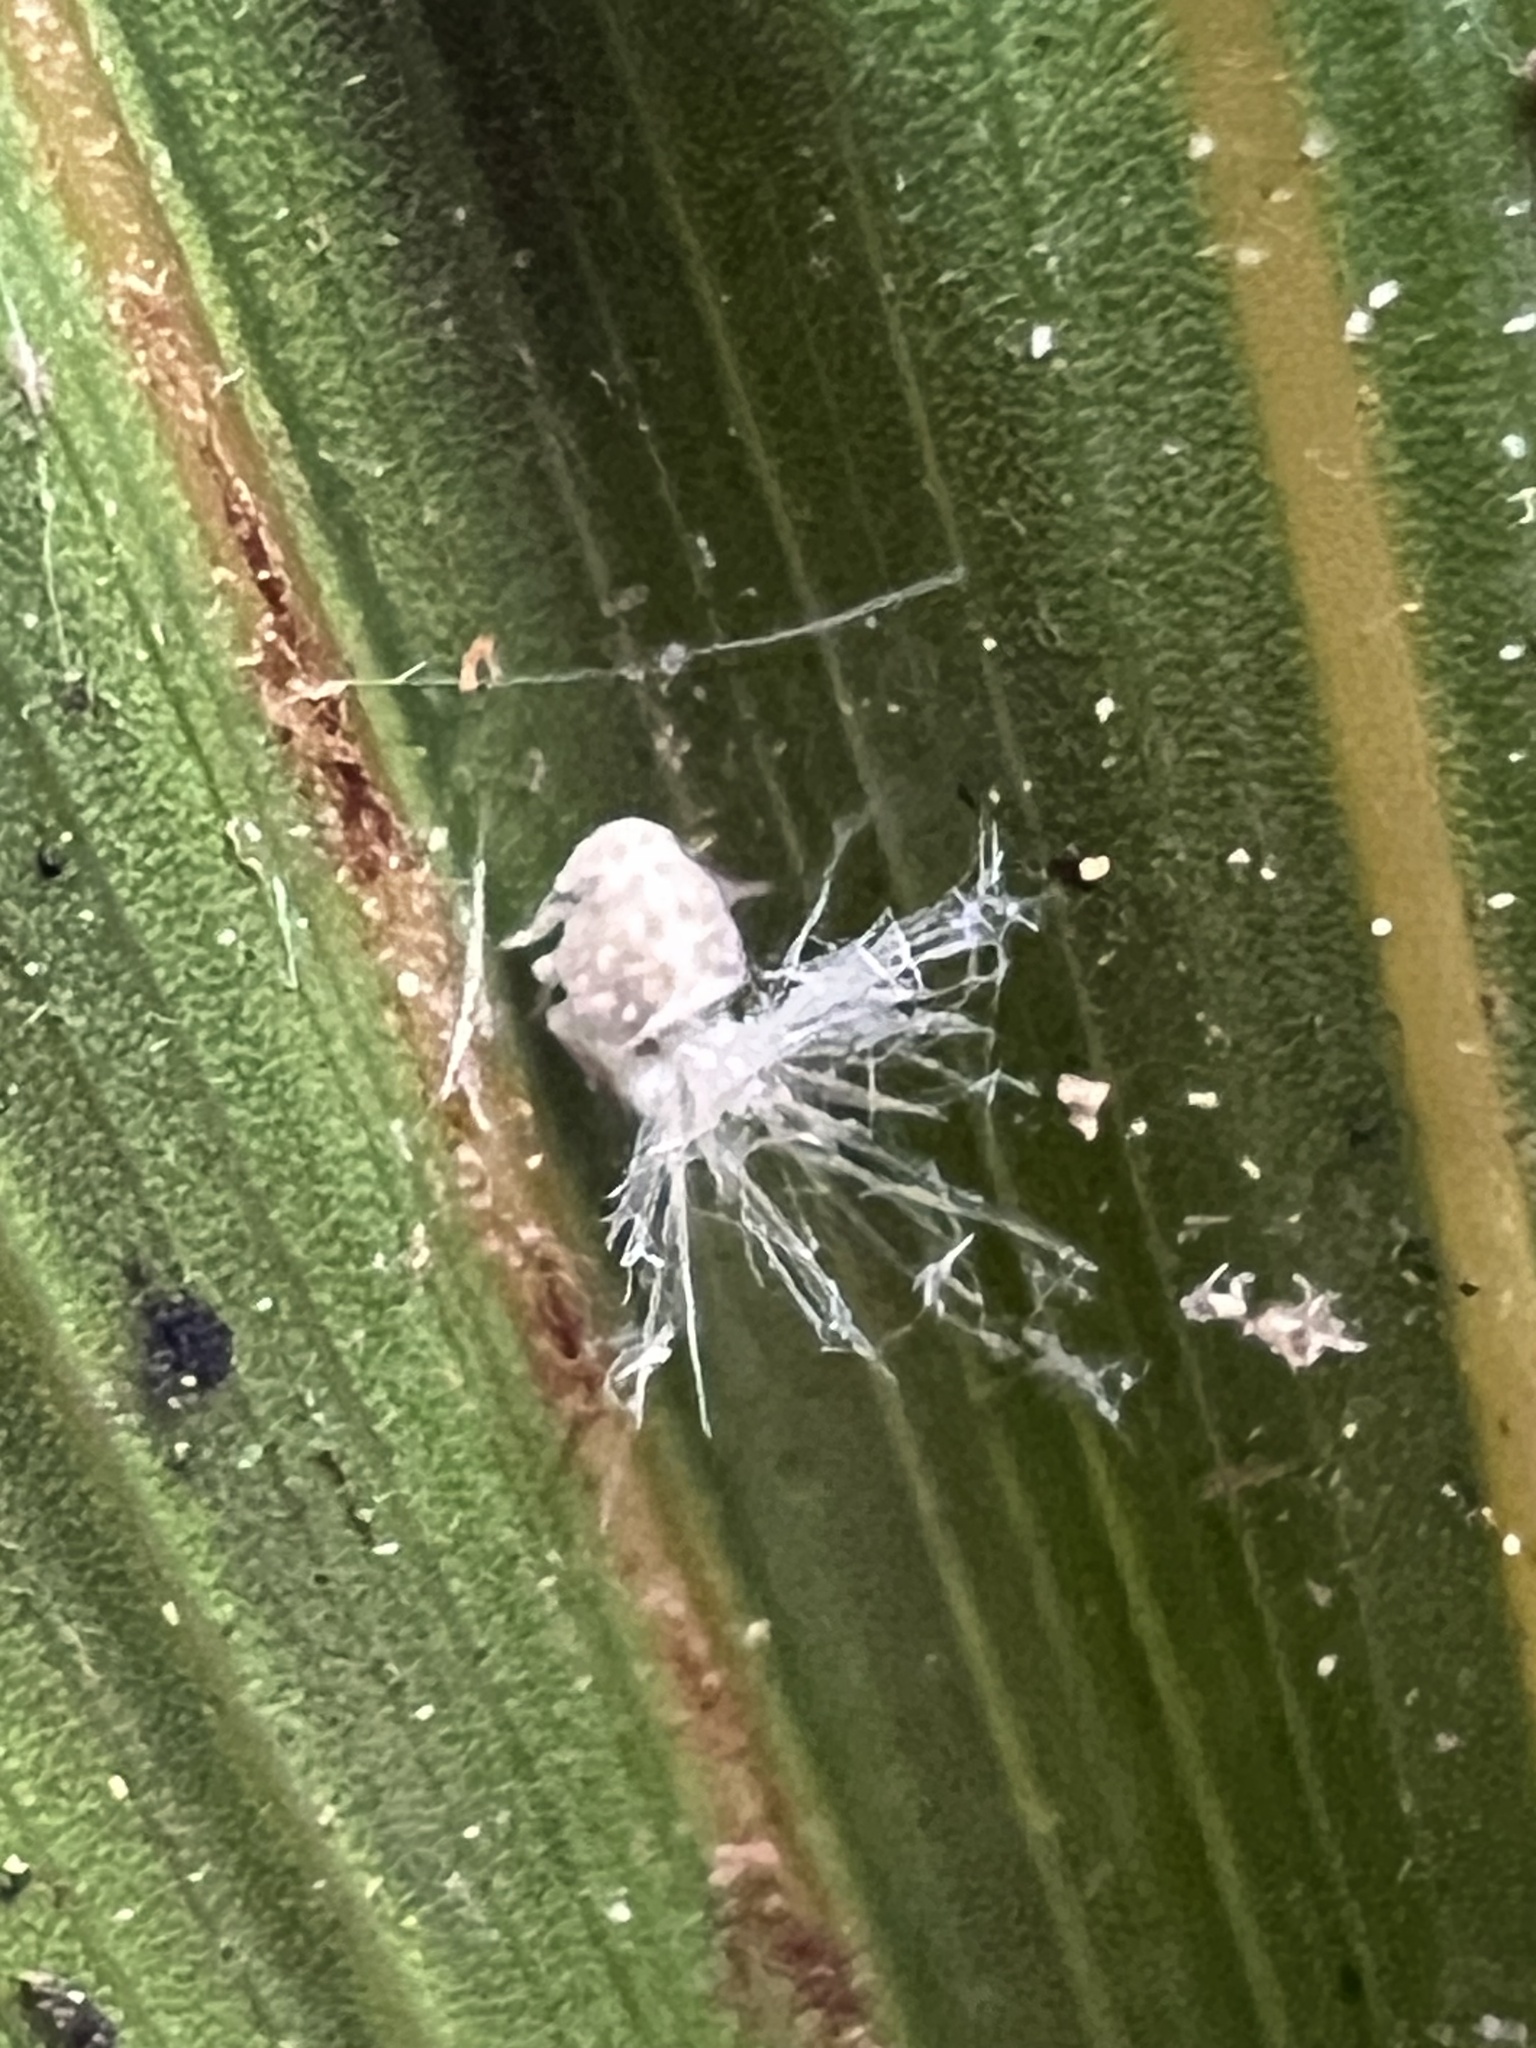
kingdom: Animalia
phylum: Arthropoda
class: Insecta
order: Hemiptera
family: Ricaniidae
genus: Scolypopa
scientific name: Scolypopa australis
